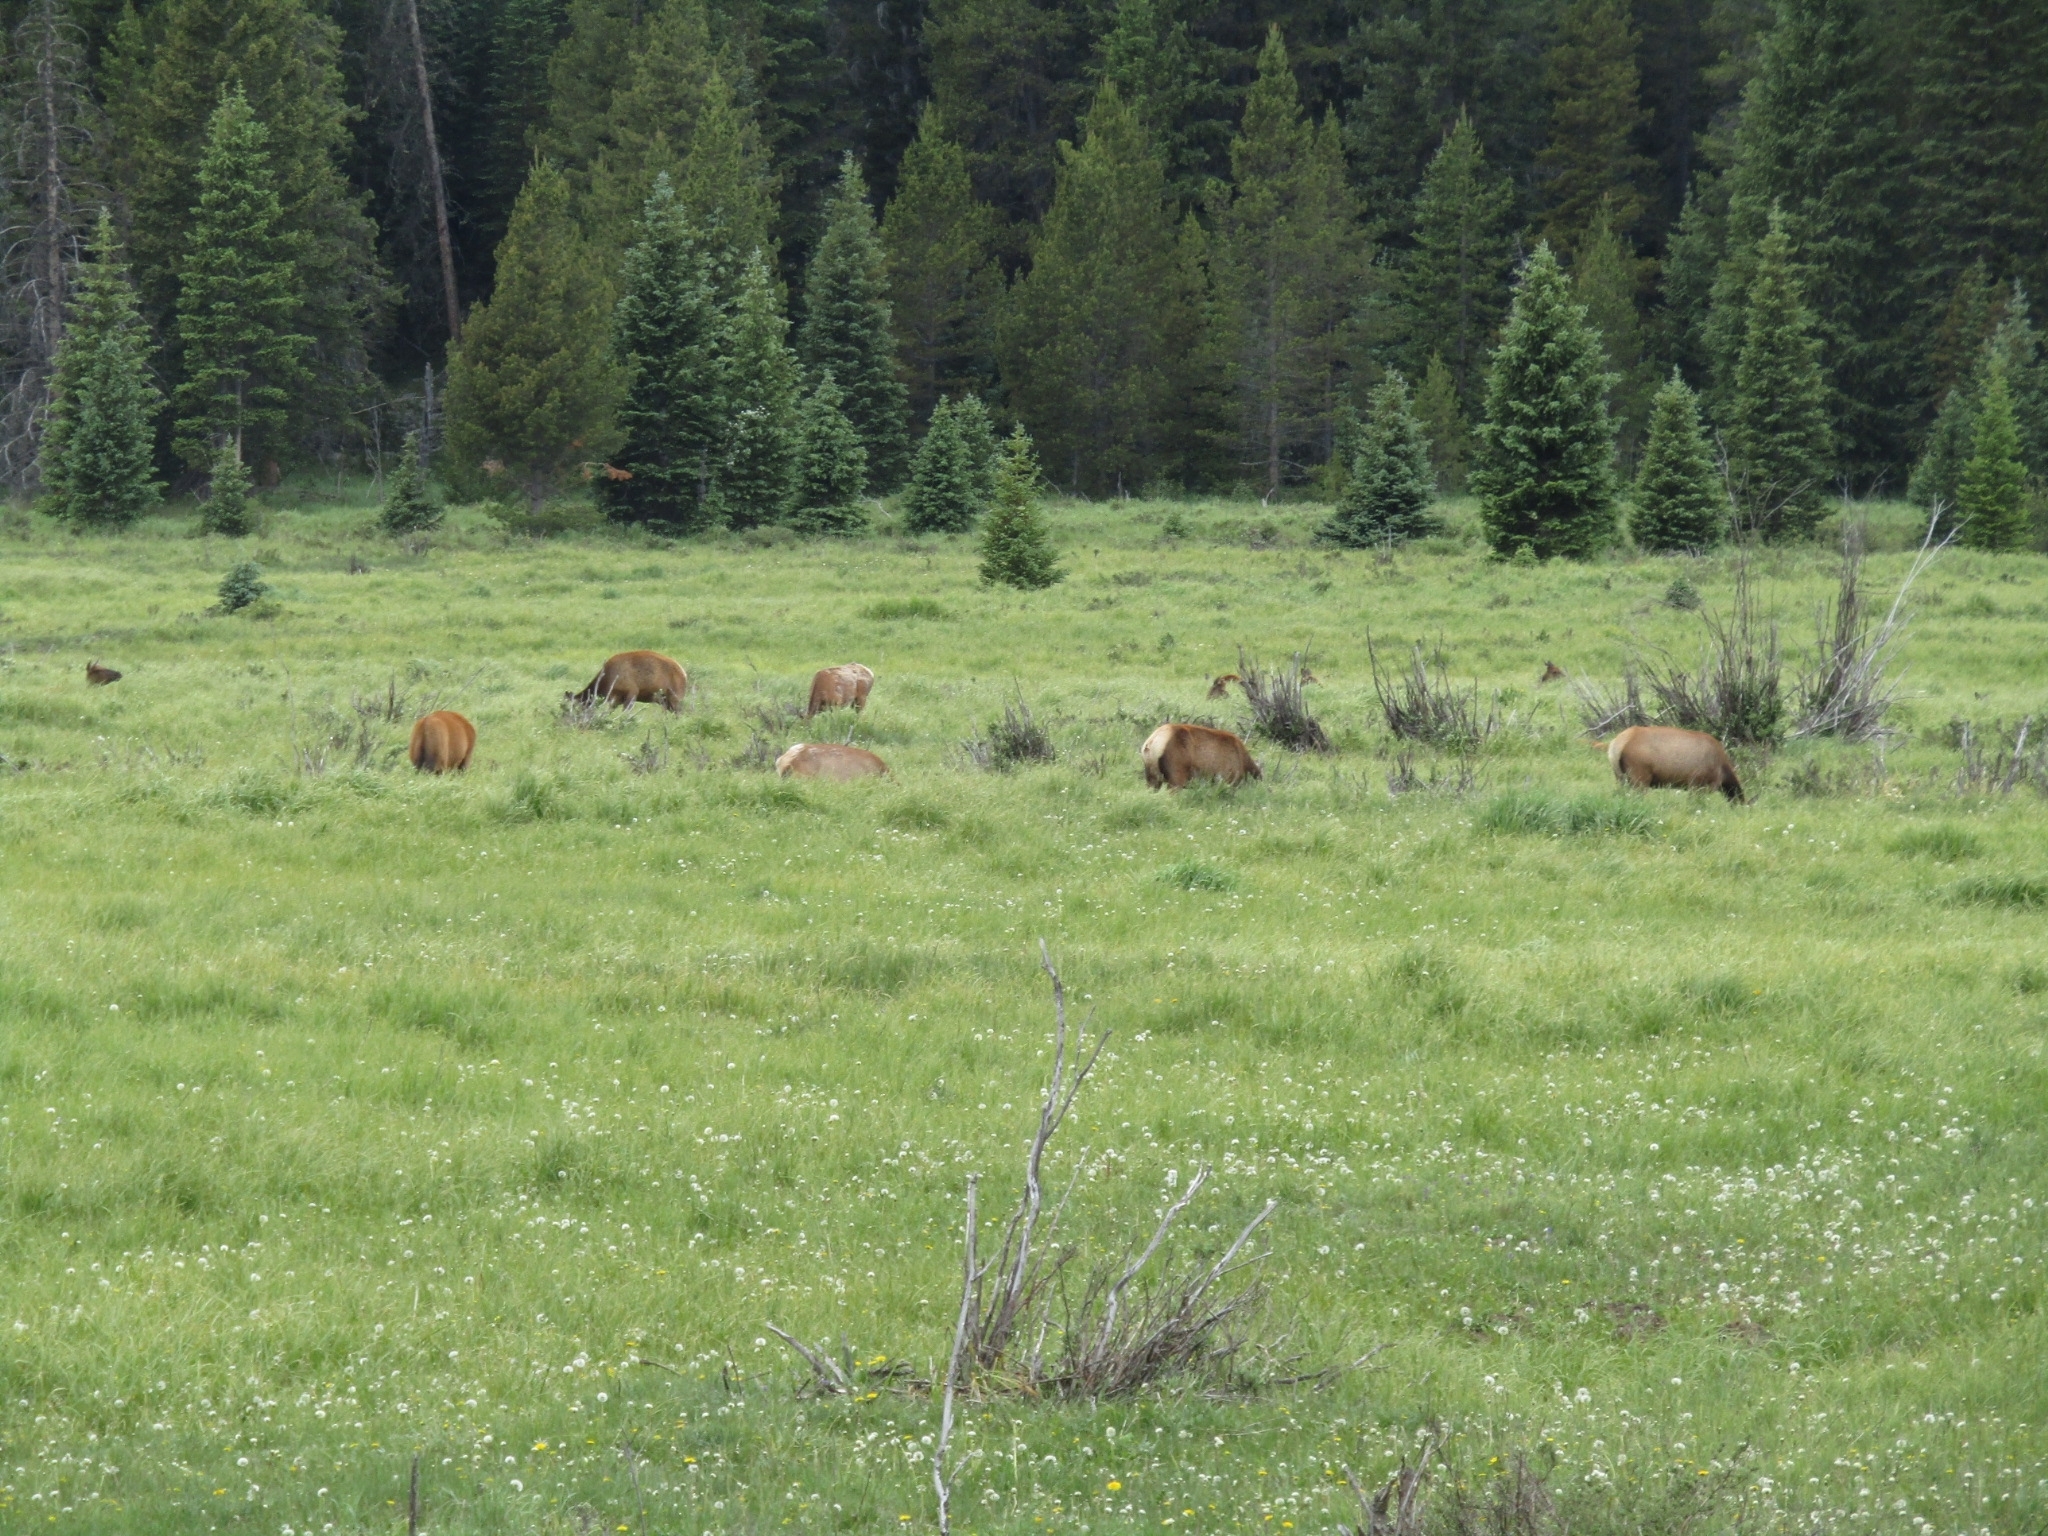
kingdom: Animalia
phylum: Chordata
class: Mammalia
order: Artiodactyla
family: Cervidae
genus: Cervus
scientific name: Cervus elaphus
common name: Red deer
